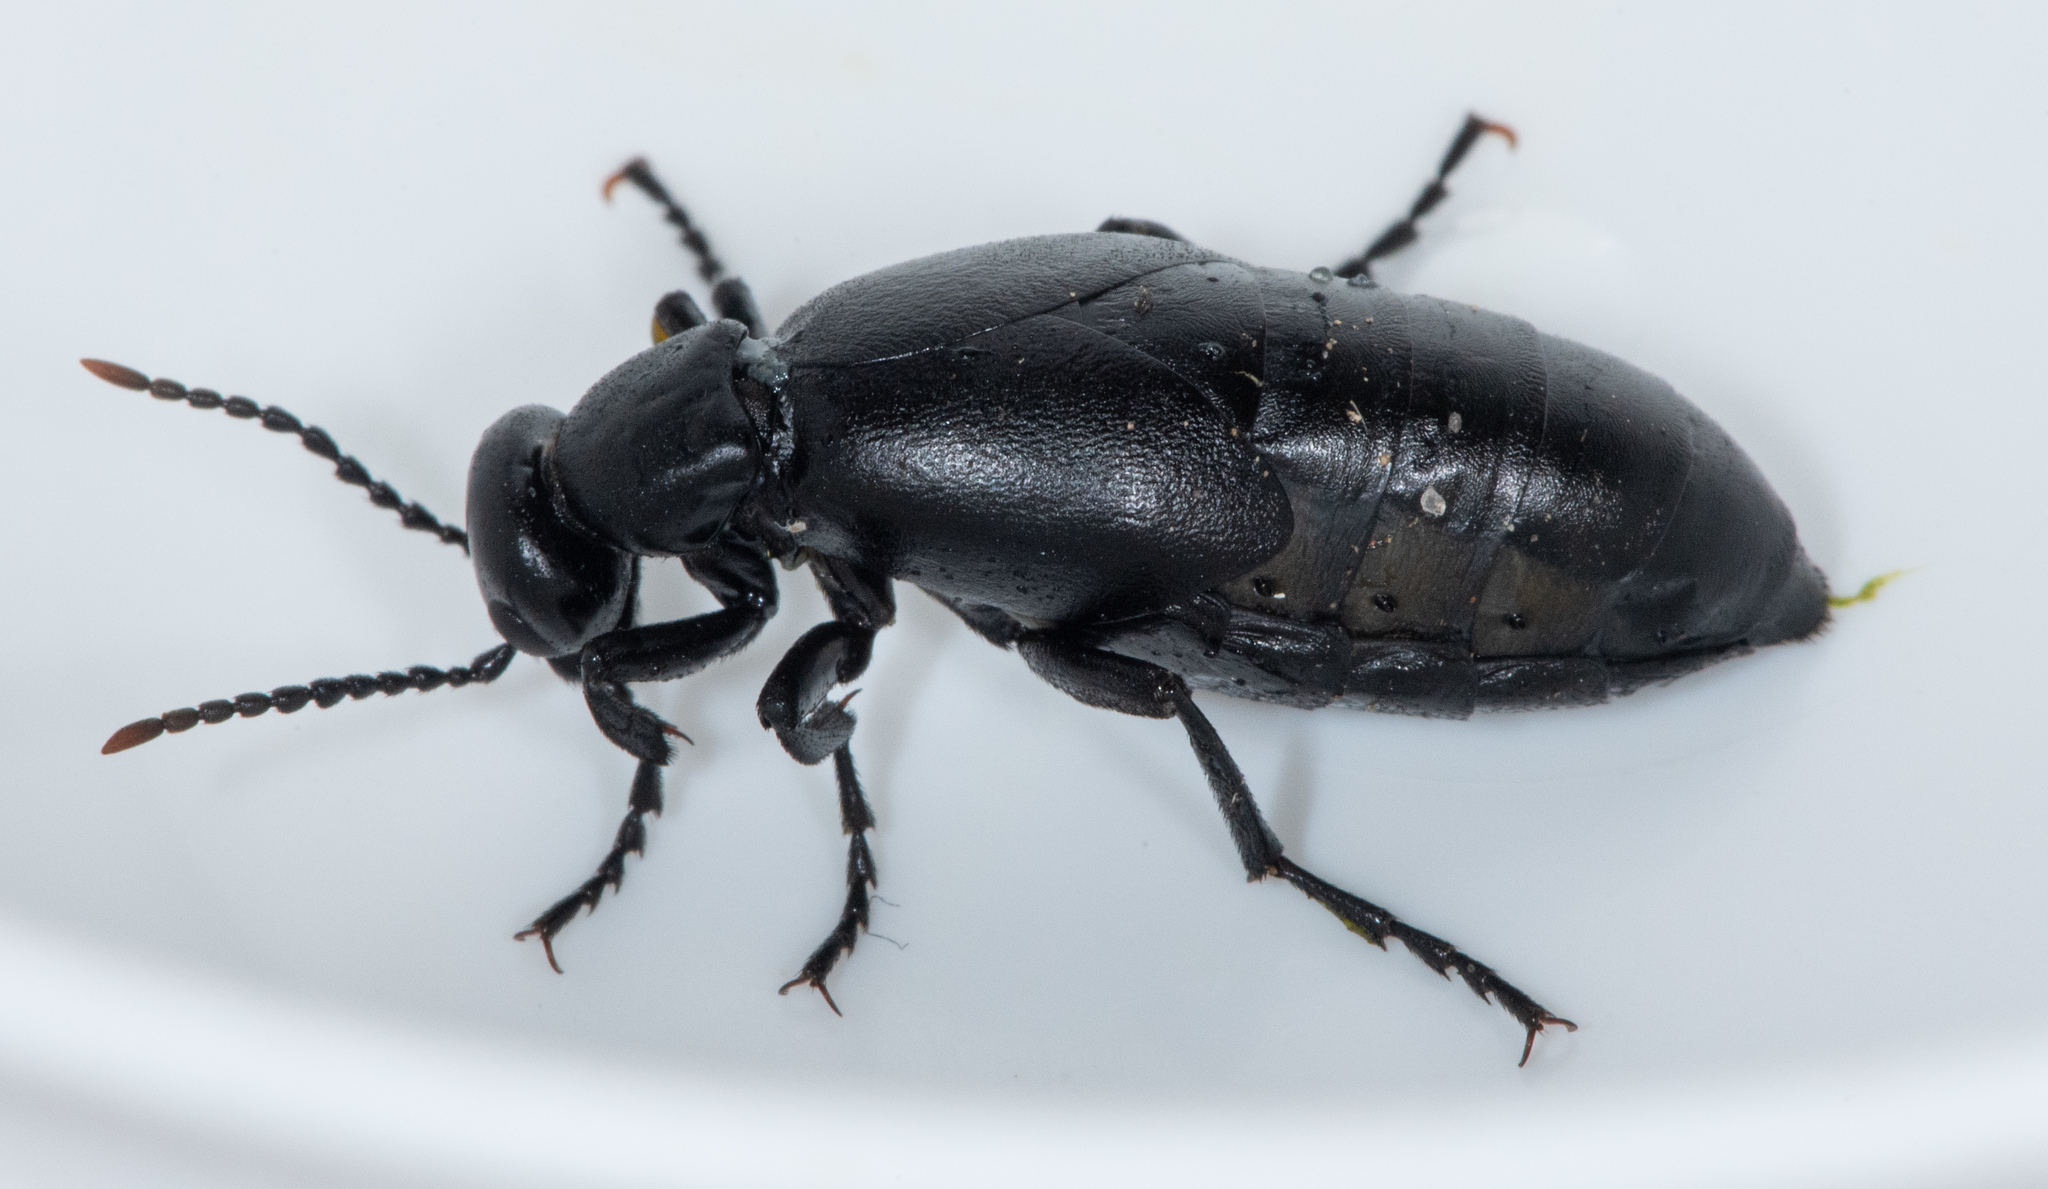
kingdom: Animalia
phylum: Arthropoda
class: Insecta
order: Coleoptera
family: Meloidae
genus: Meloe
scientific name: Meloe strigulosus
